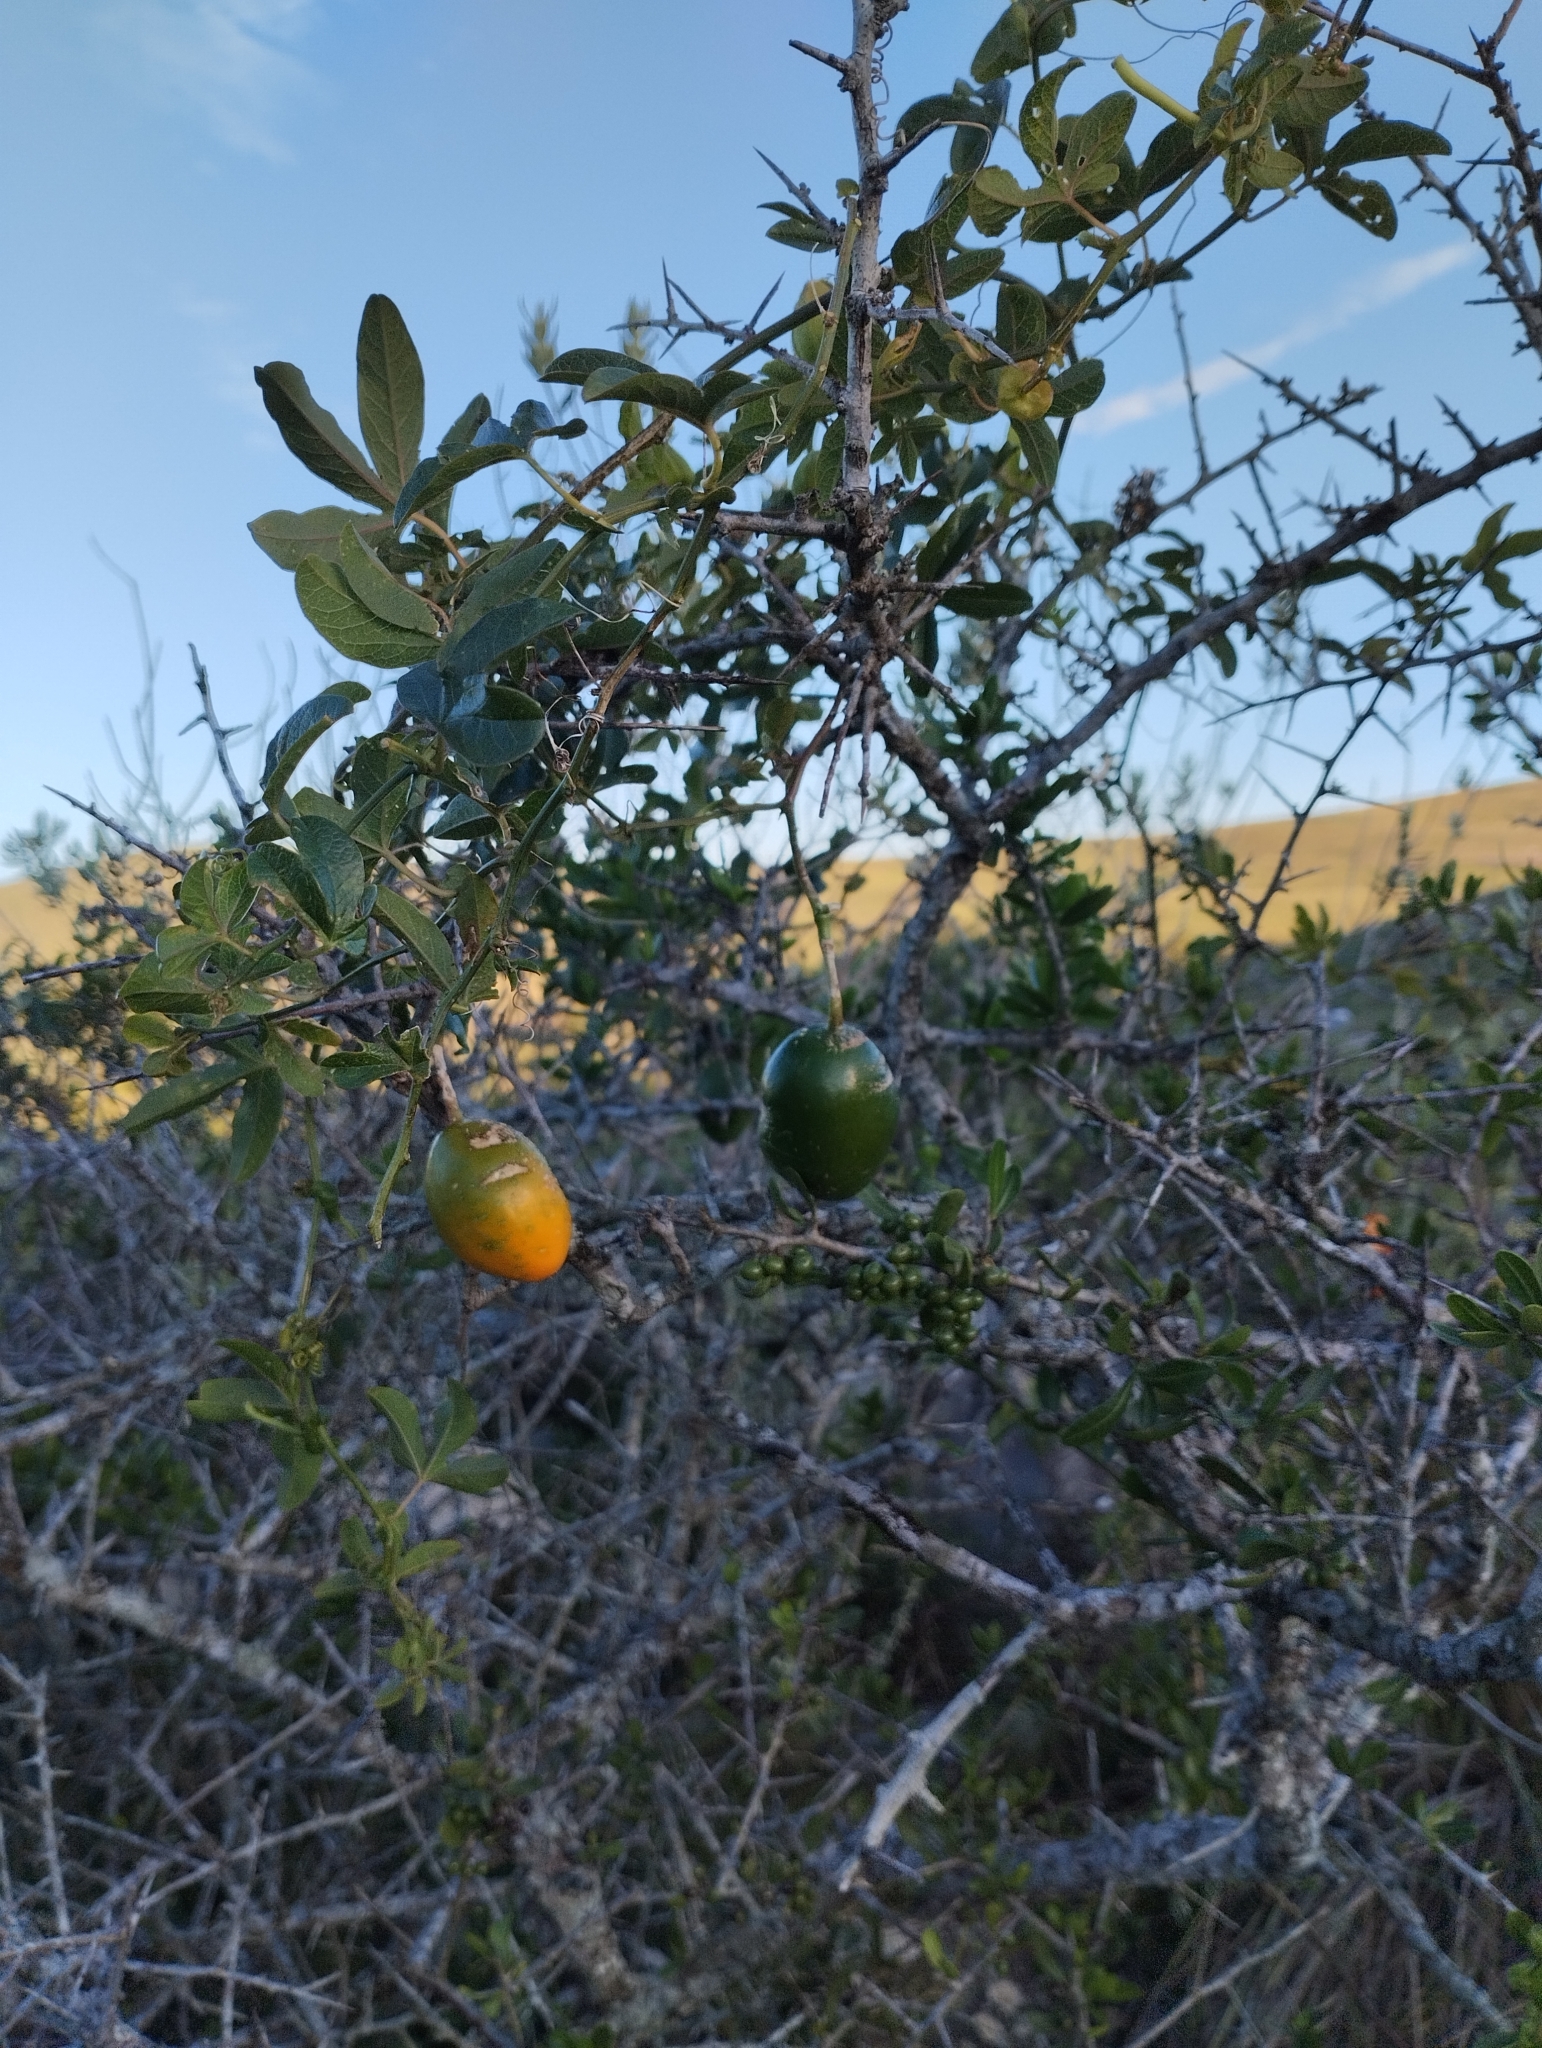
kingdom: Plantae
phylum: Tracheophyta
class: Magnoliopsida
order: Malpighiales
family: Passifloraceae
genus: Passiflora
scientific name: Passiflora caerulea
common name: Blue passionflower
